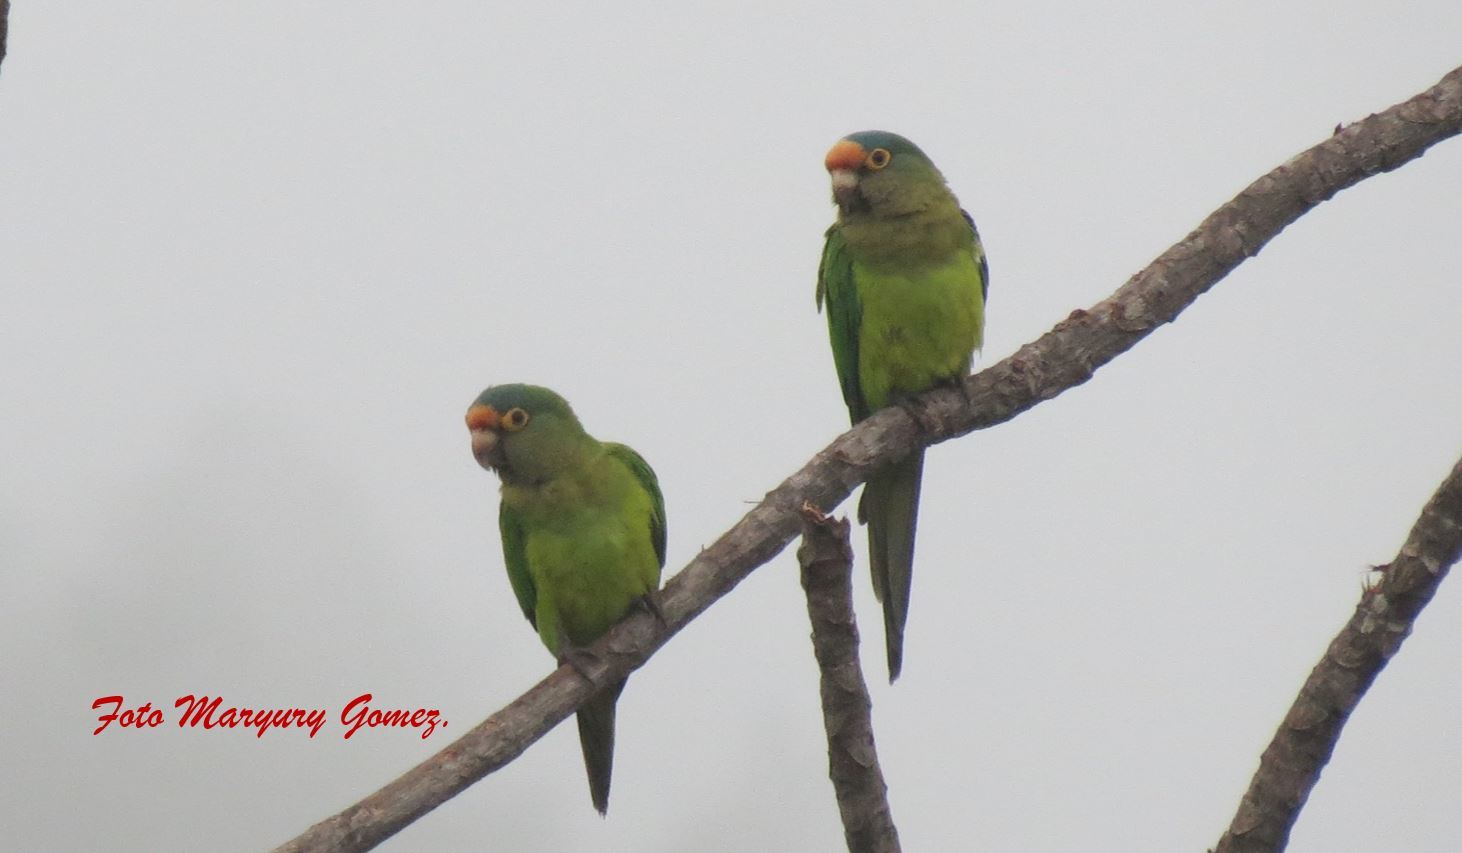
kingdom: Animalia
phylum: Chordata
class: Aves
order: Psittaciformes
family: Psittacidae
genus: Aratinga
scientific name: Aratinga canicularis
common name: Orange-fronted parakeet
